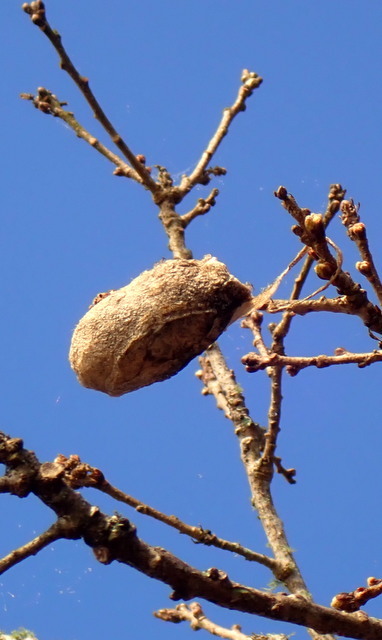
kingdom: Animalia
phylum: Arthropoda
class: Insecta
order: Lepidoptera
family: Saturniidae
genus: Antheraea
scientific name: Antheraea polyphemus
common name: Polyphemus moth
